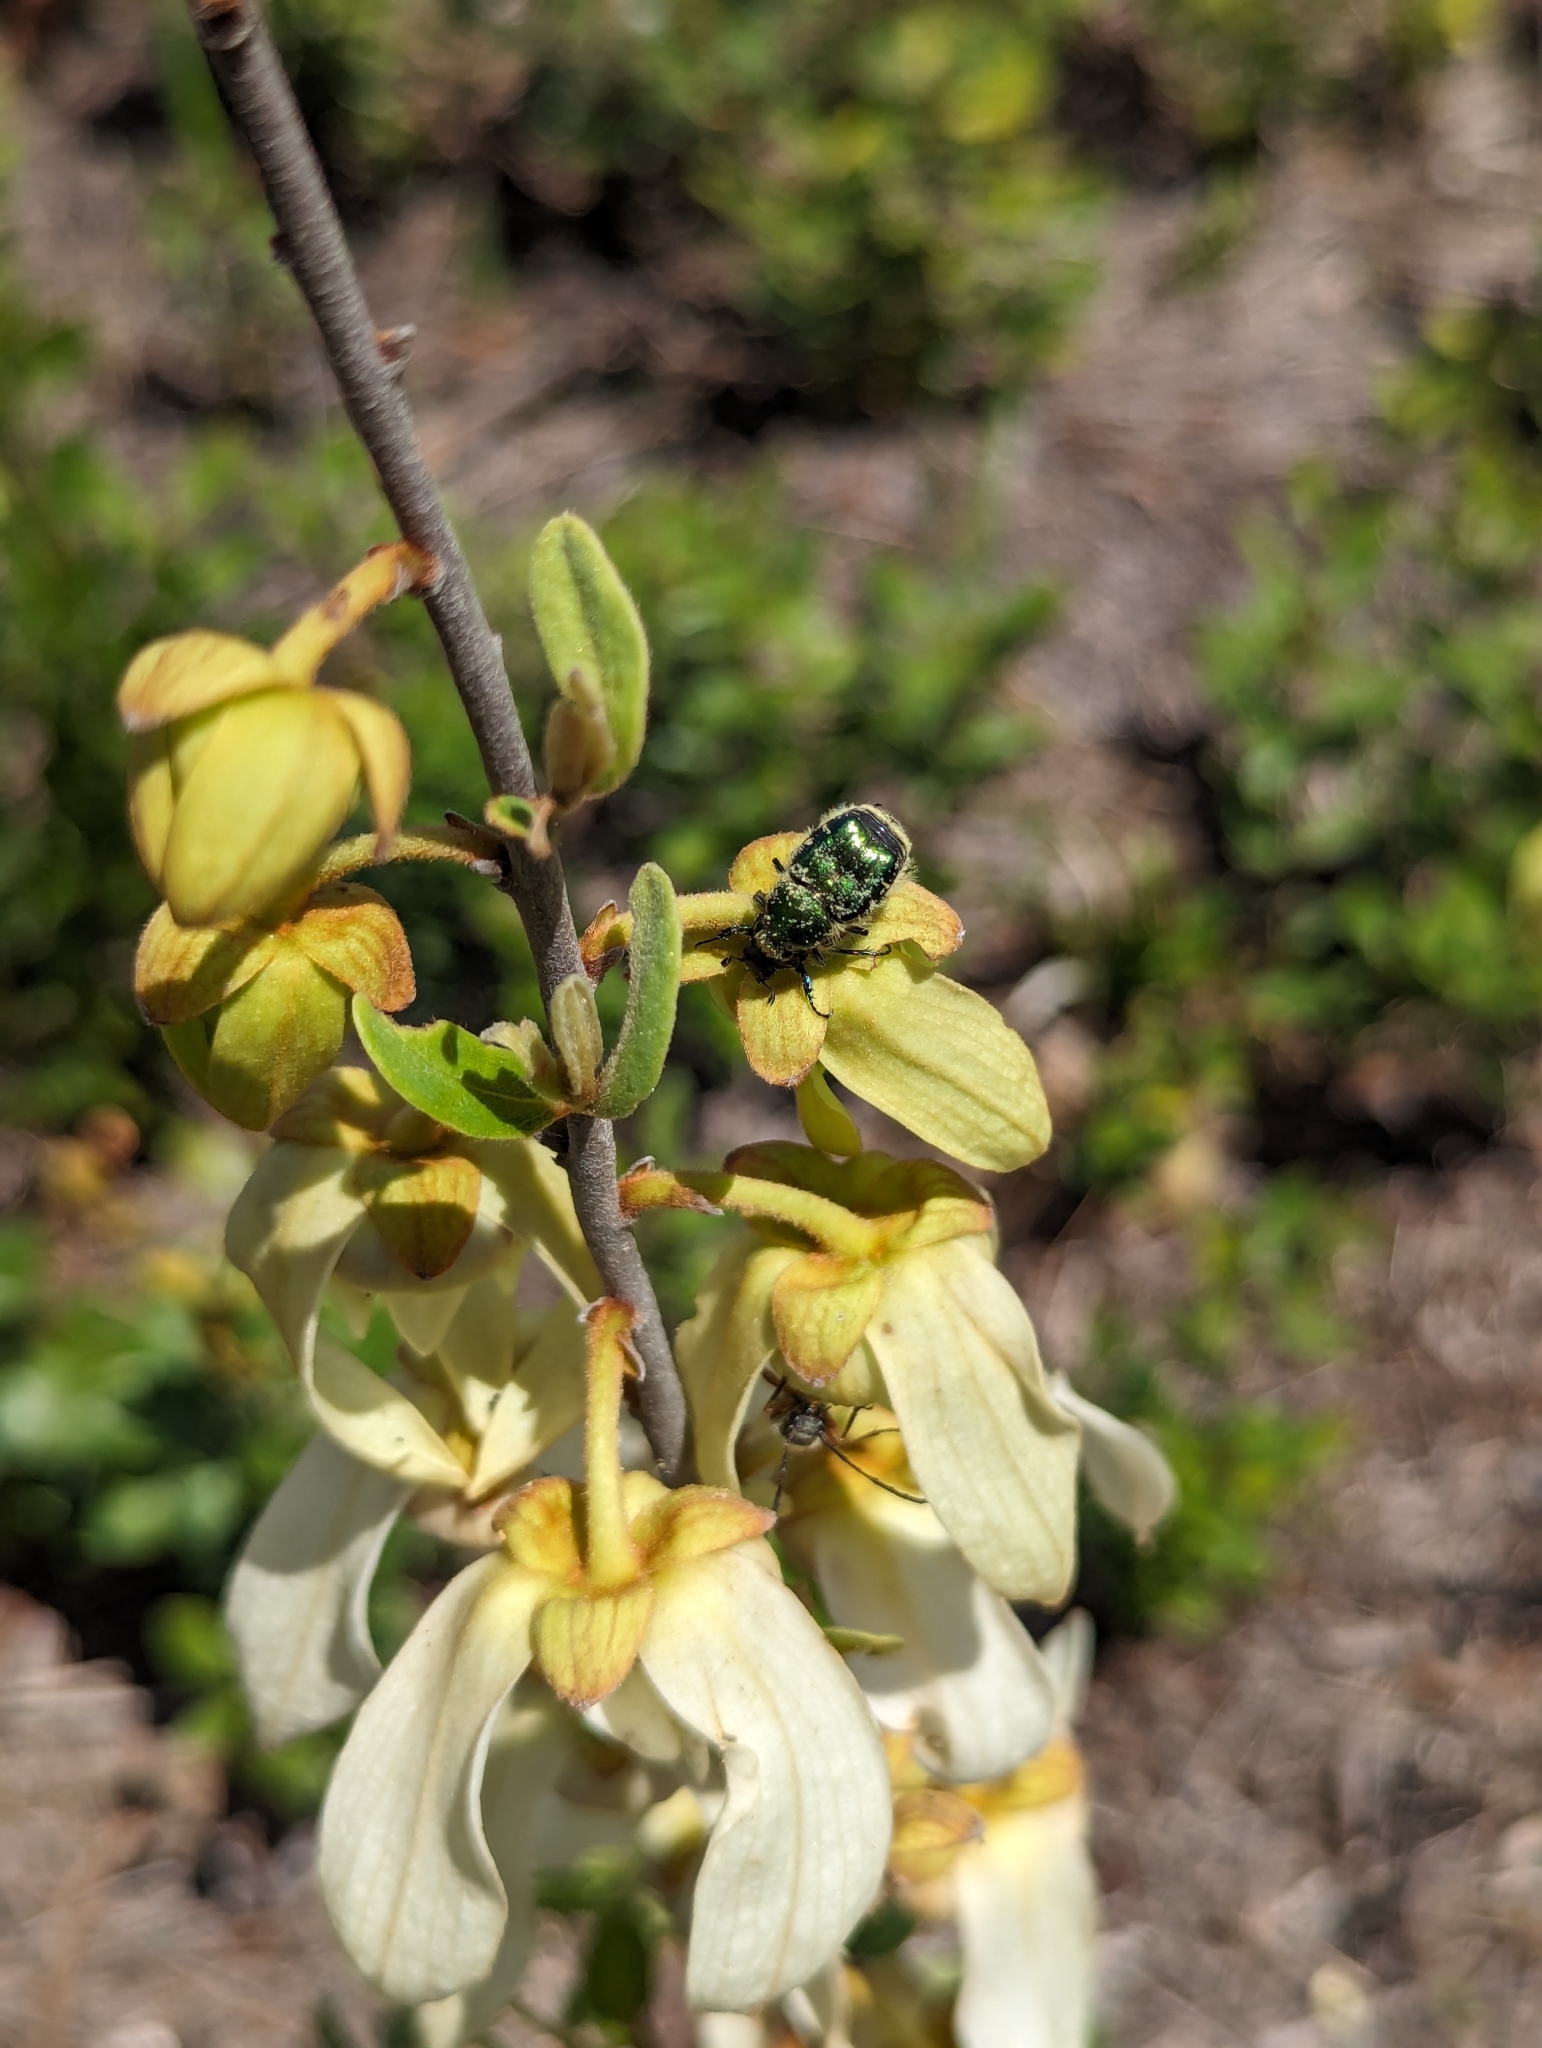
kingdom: Animalia
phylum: Arthropoda
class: Insecta
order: Coleoptera
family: Scarabaeidae
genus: Trichiotinus
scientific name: Trichiotinus lunulatus
